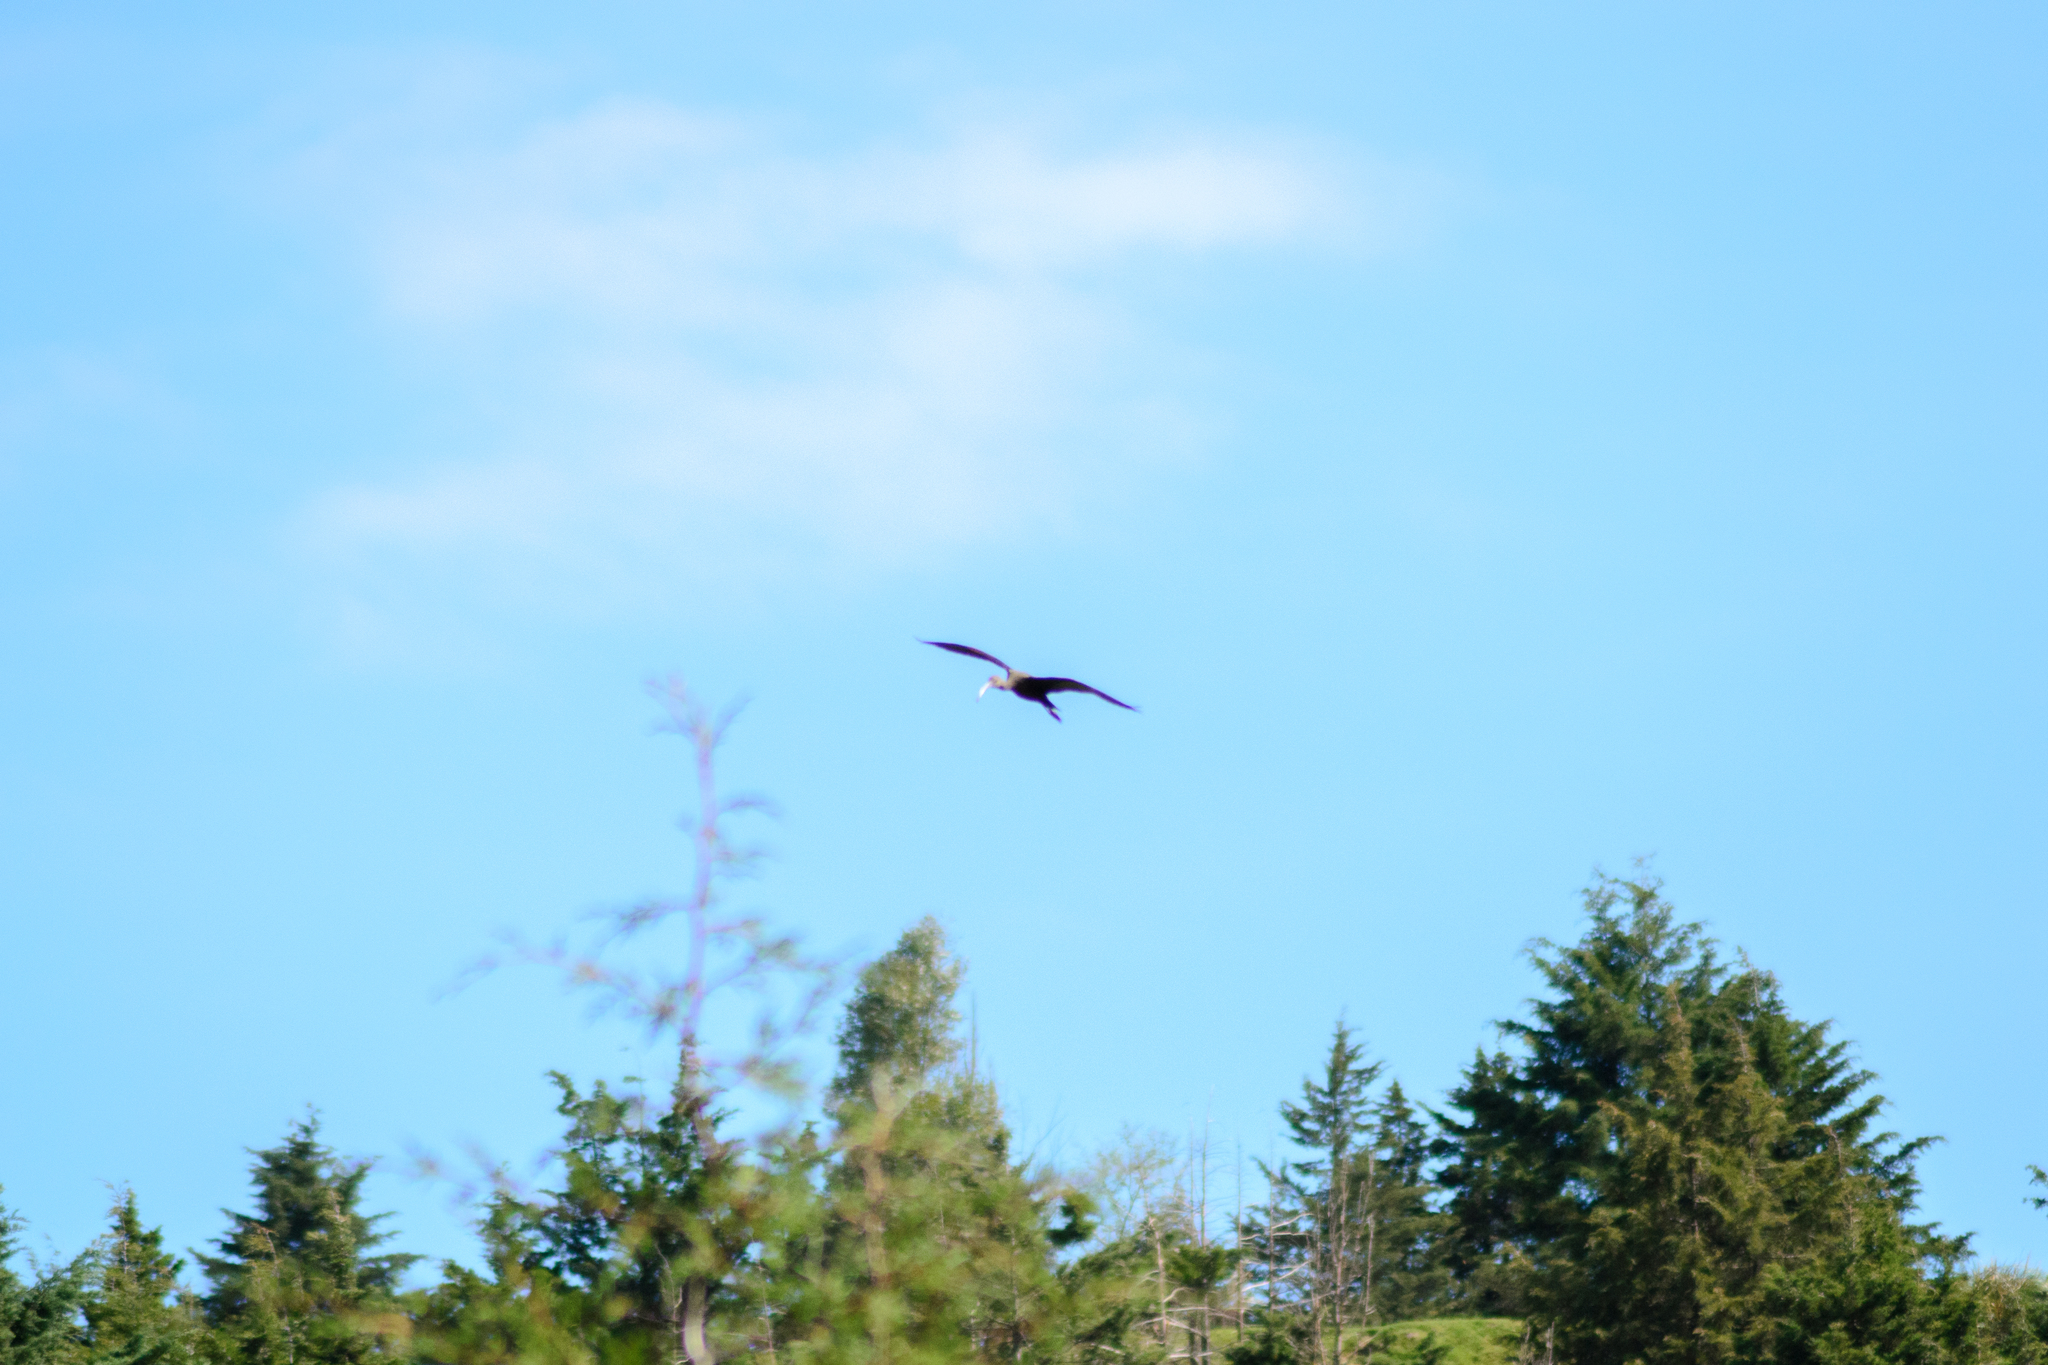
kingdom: Animalia
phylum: Chordata
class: Aves
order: Pelecaniformes
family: Threskiornithidae
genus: Plegadis
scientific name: Plegadis chihi
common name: White-faced ibis
